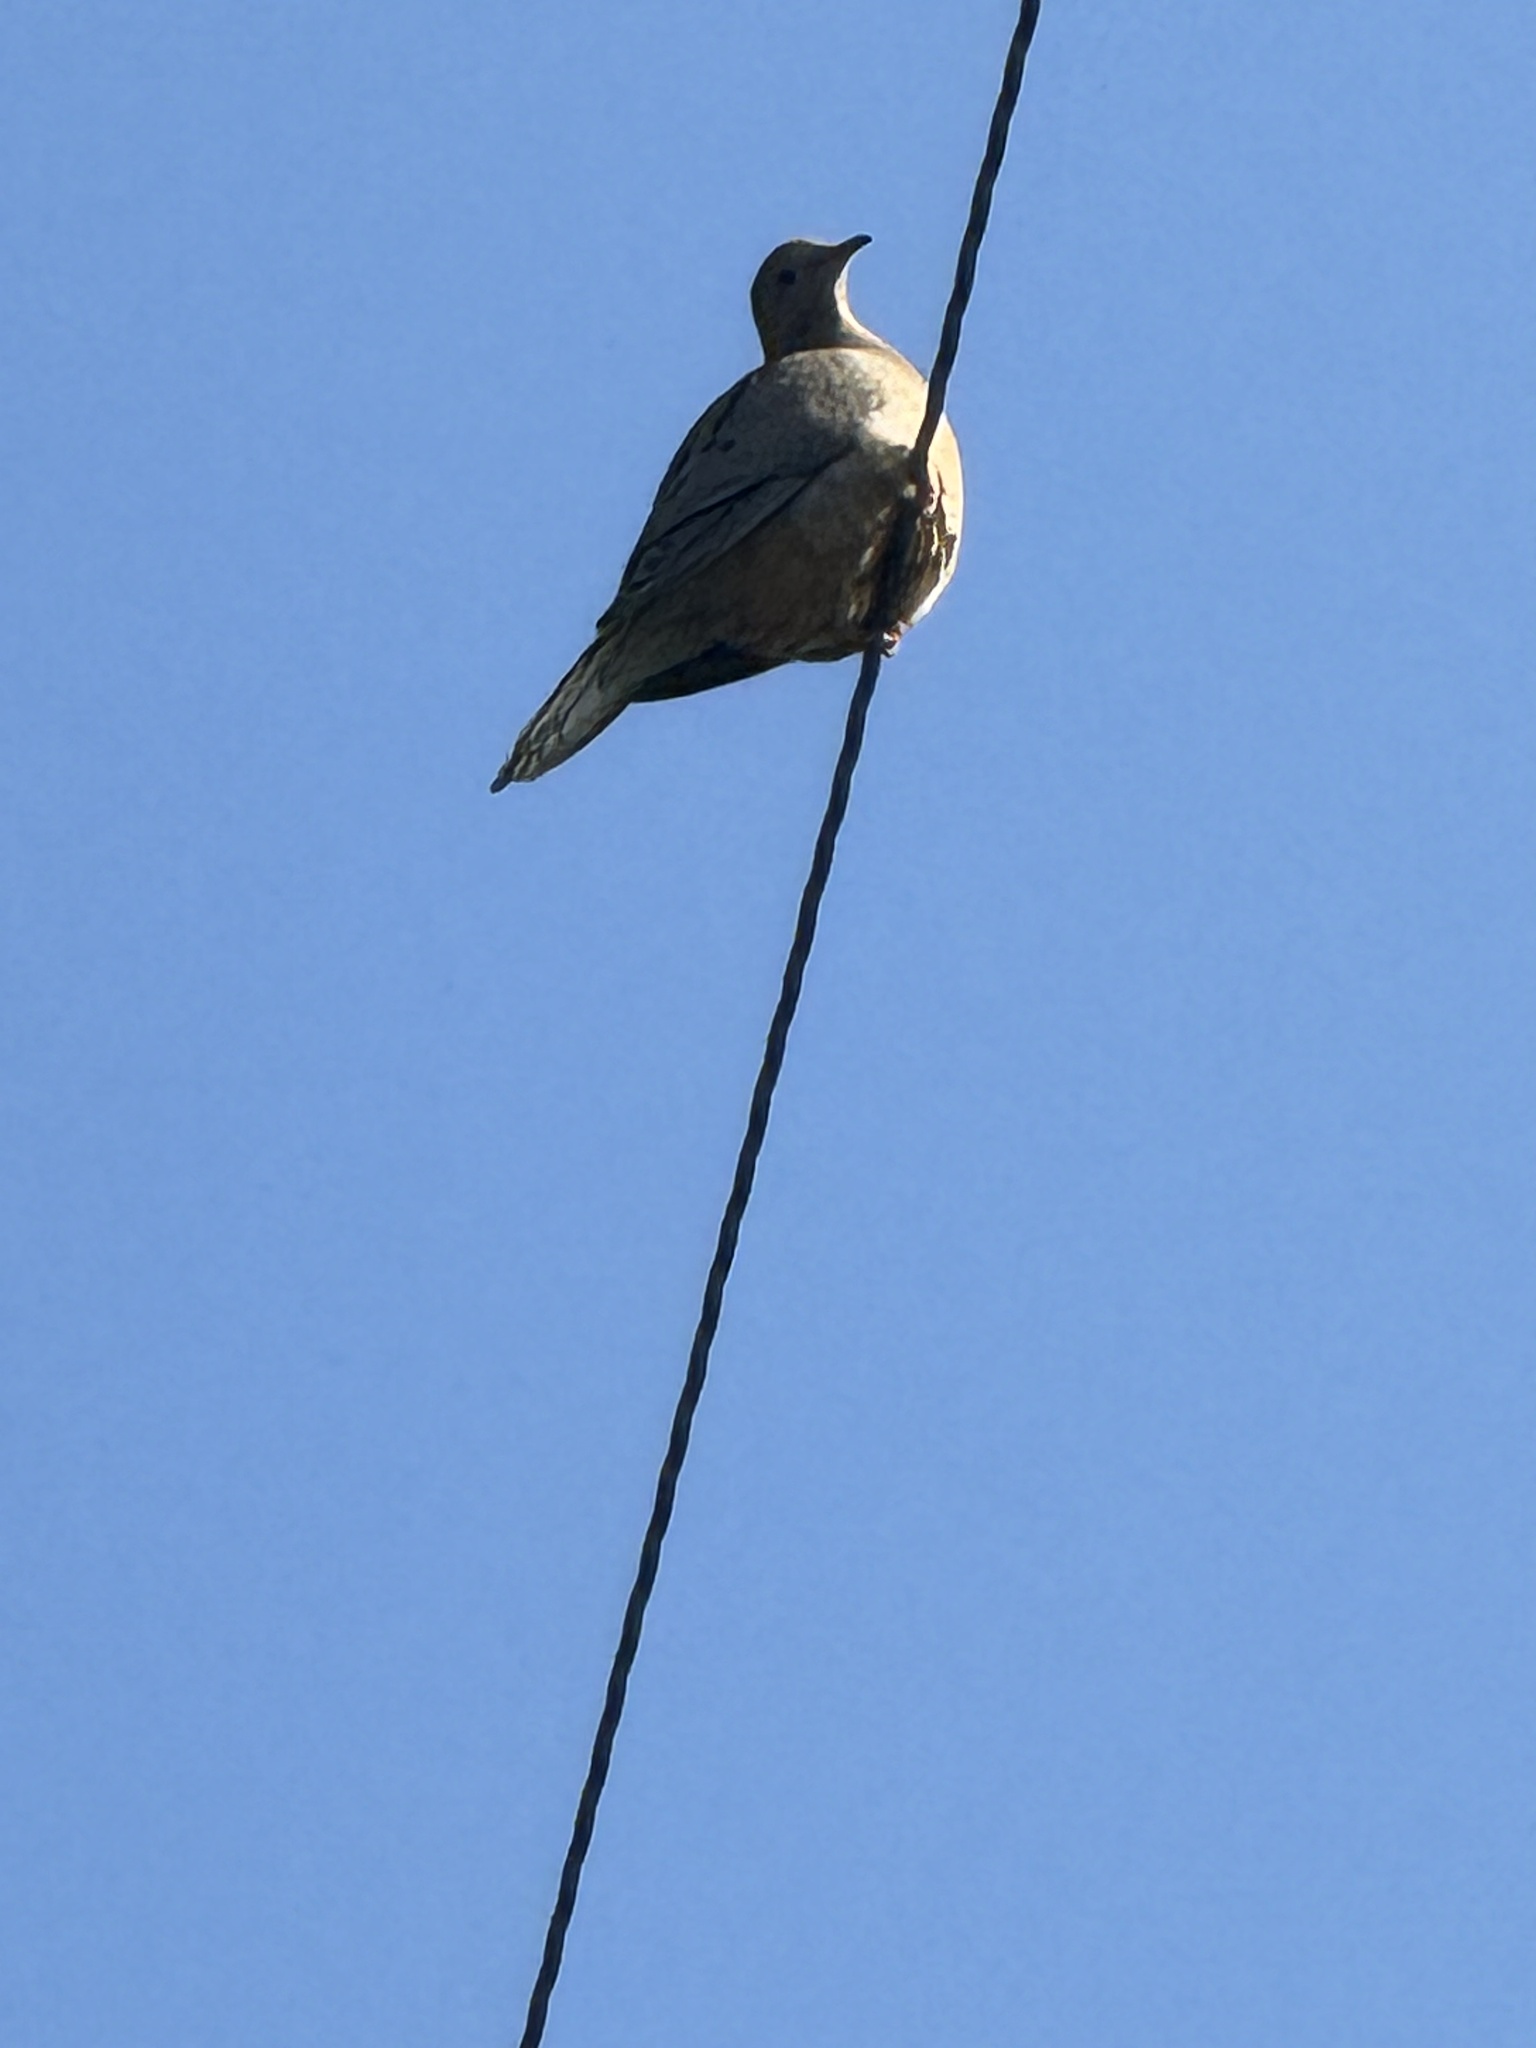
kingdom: Animalia
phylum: Chordata
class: Aves
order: Columbiformes
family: Columbidae
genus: Zenaida
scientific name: Zenaida macroura
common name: Mourning dove
